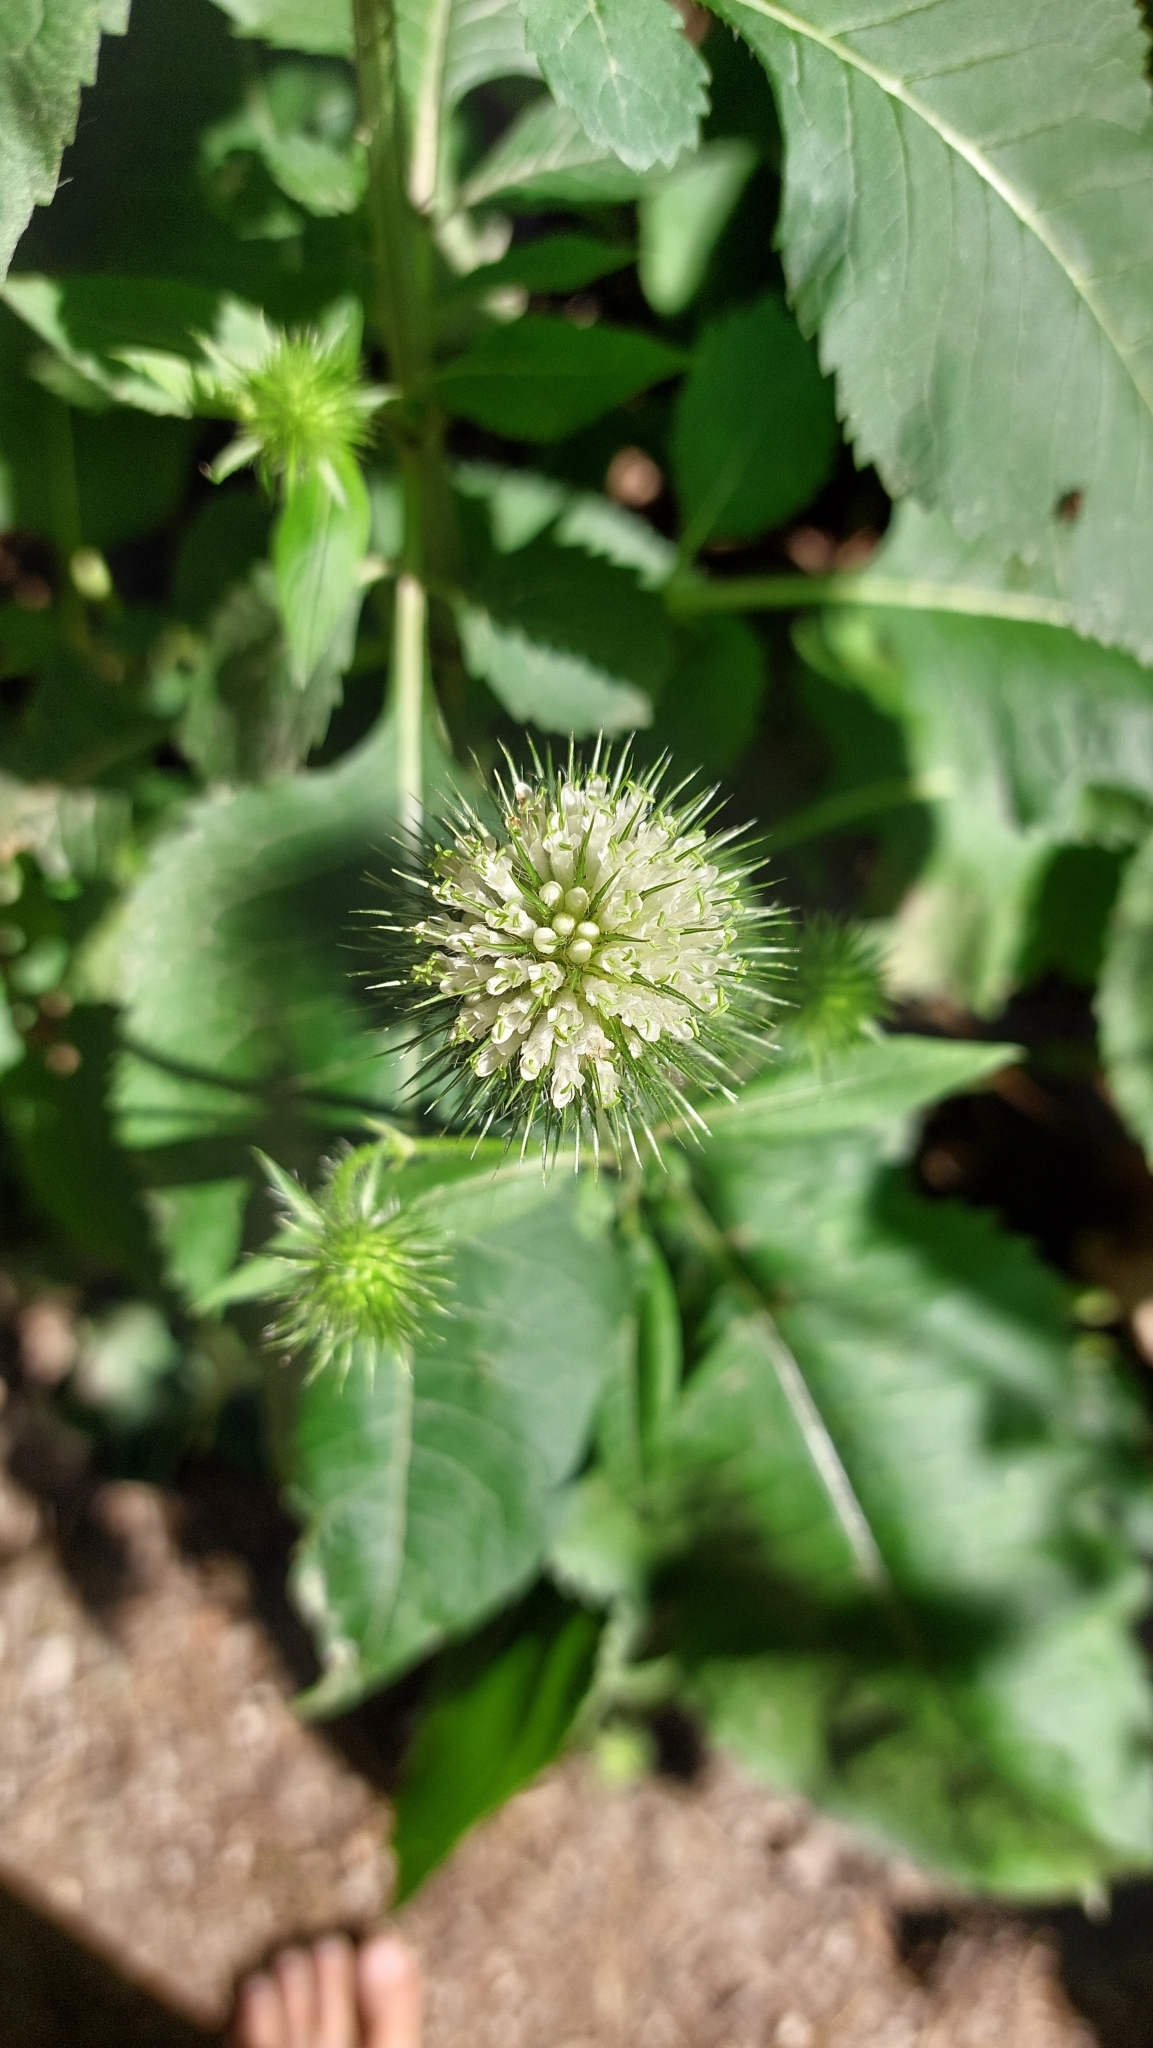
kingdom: Plantae
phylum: Tracheophyta
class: Magnoliopsida
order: Dipsacales
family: Caprifoliaceae
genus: Dipsacus
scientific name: Dipsacus strigosus
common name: Yellow-flowered teasel
